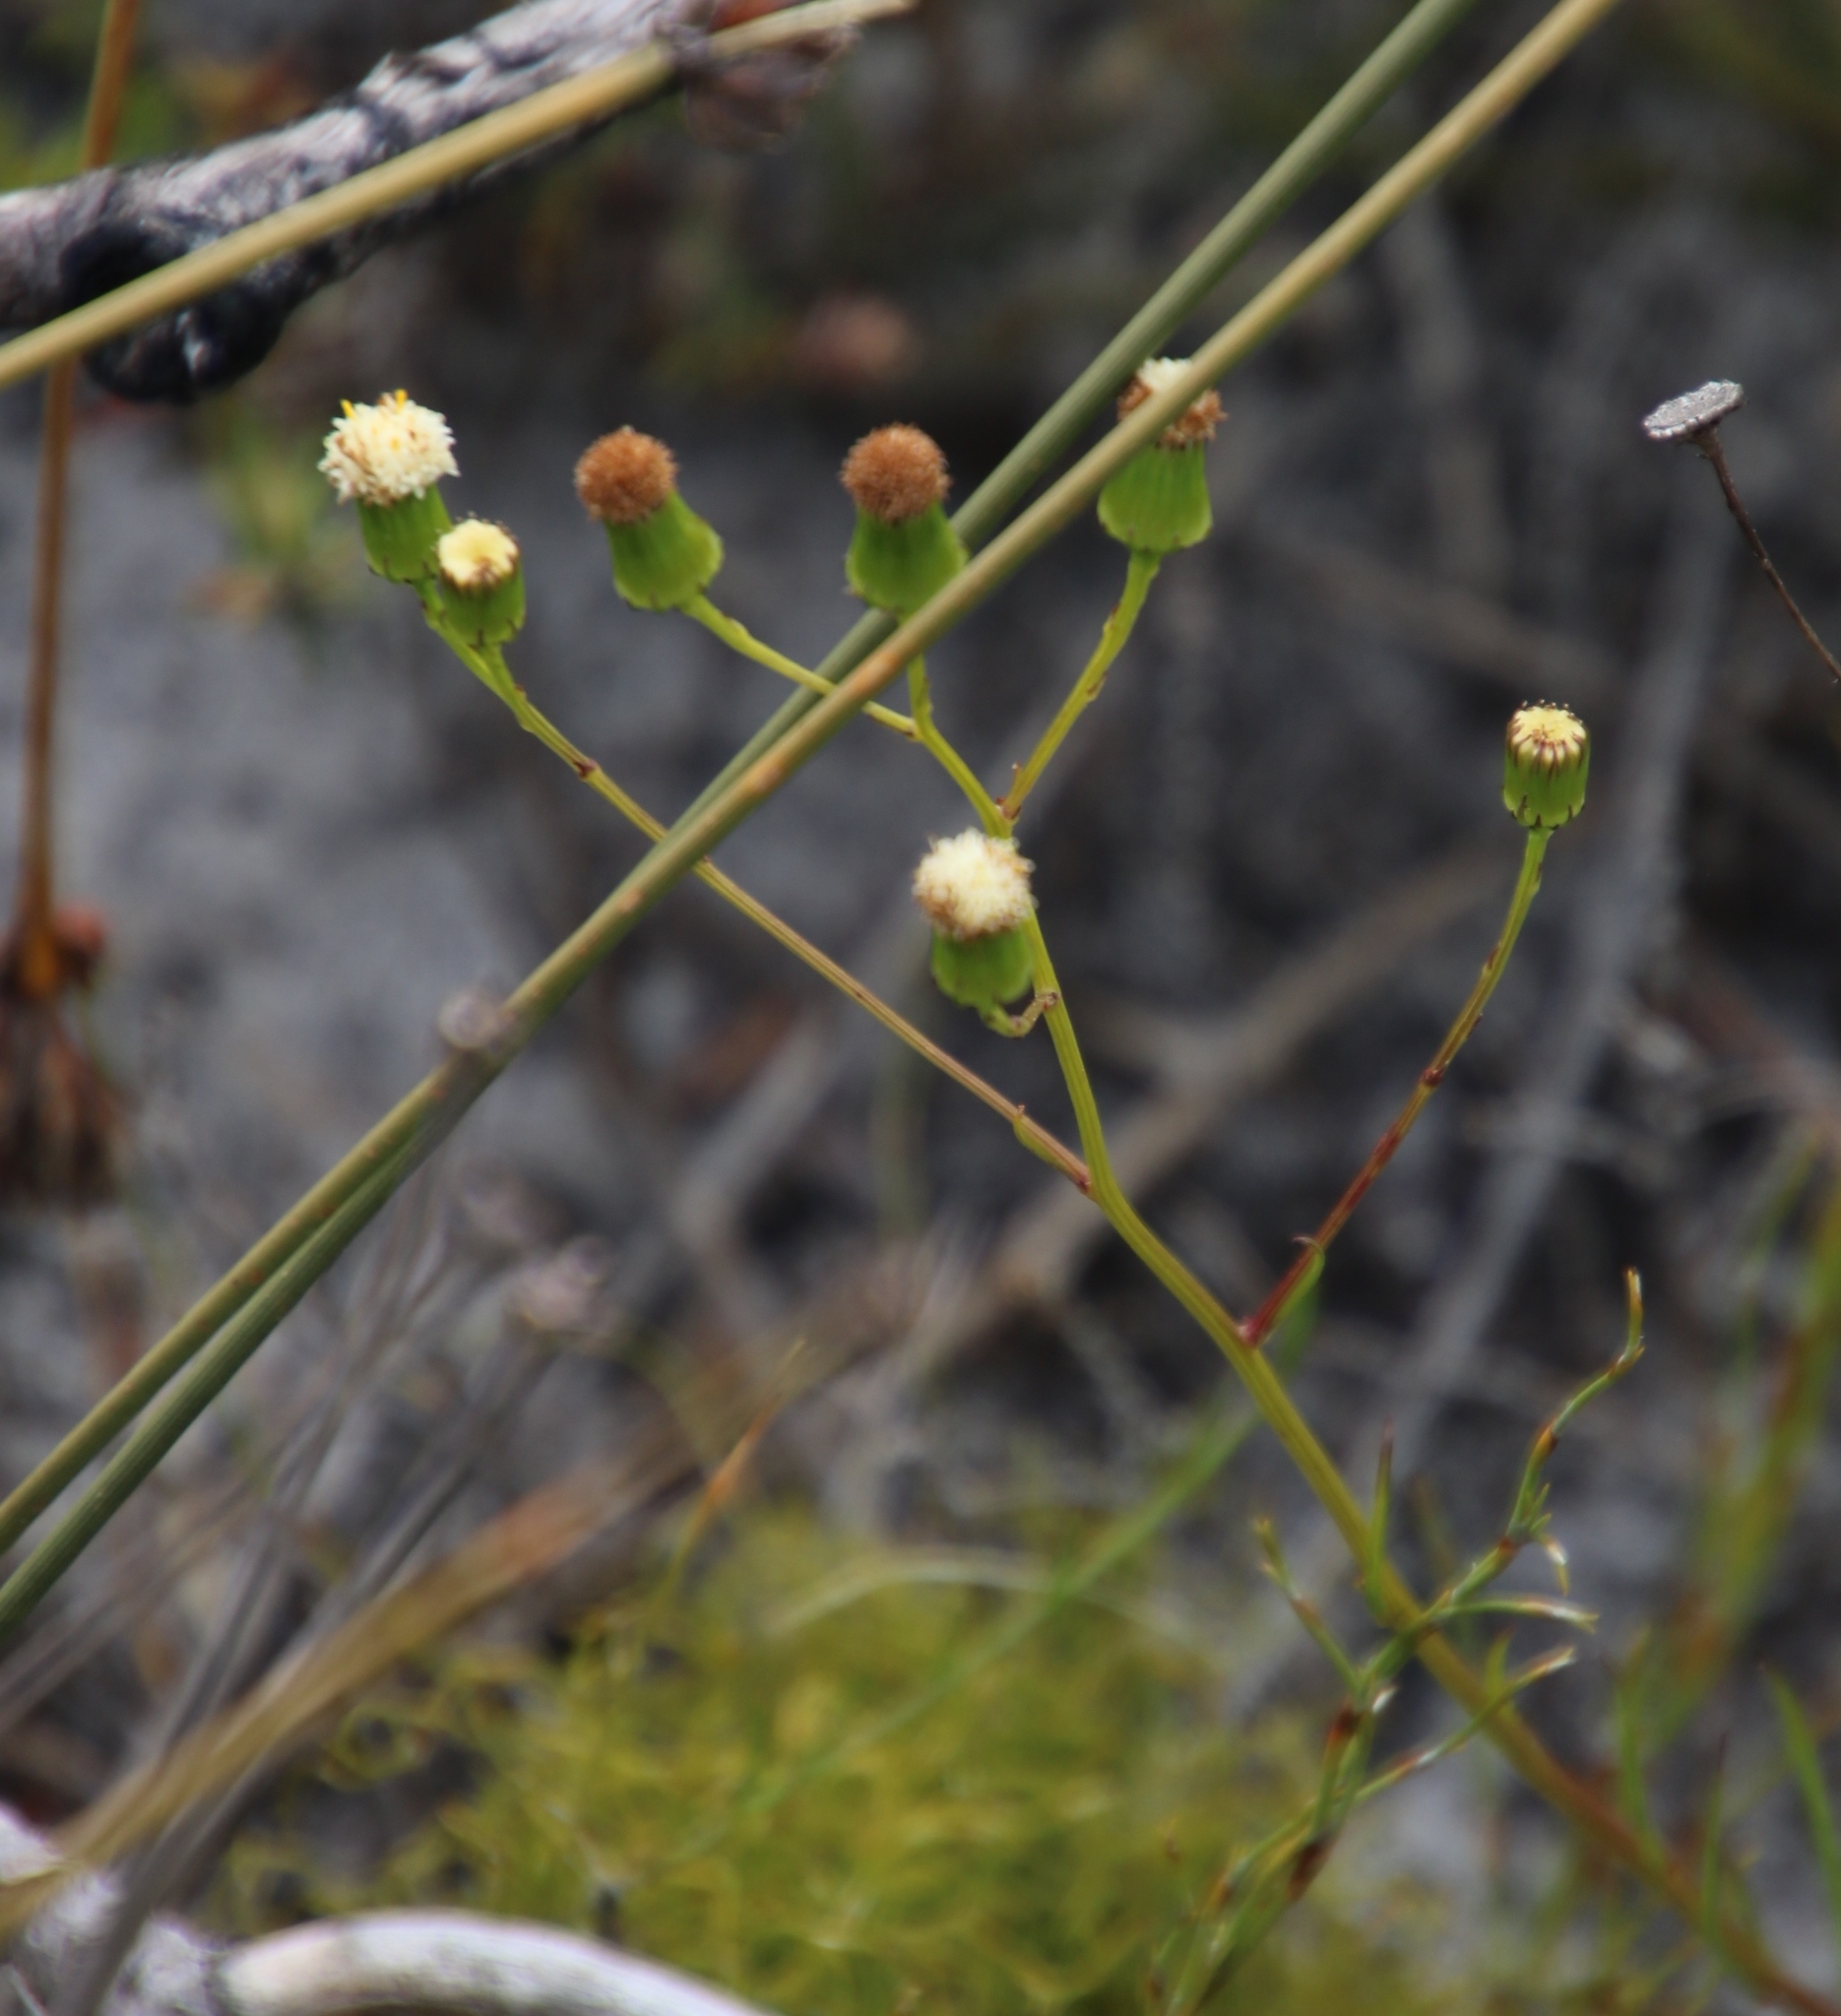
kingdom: Plantae
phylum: Tracheophyta
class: Magnoliopsida
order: Asterales
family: Asteraceae
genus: Senecio
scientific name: Senecio paniculatus
